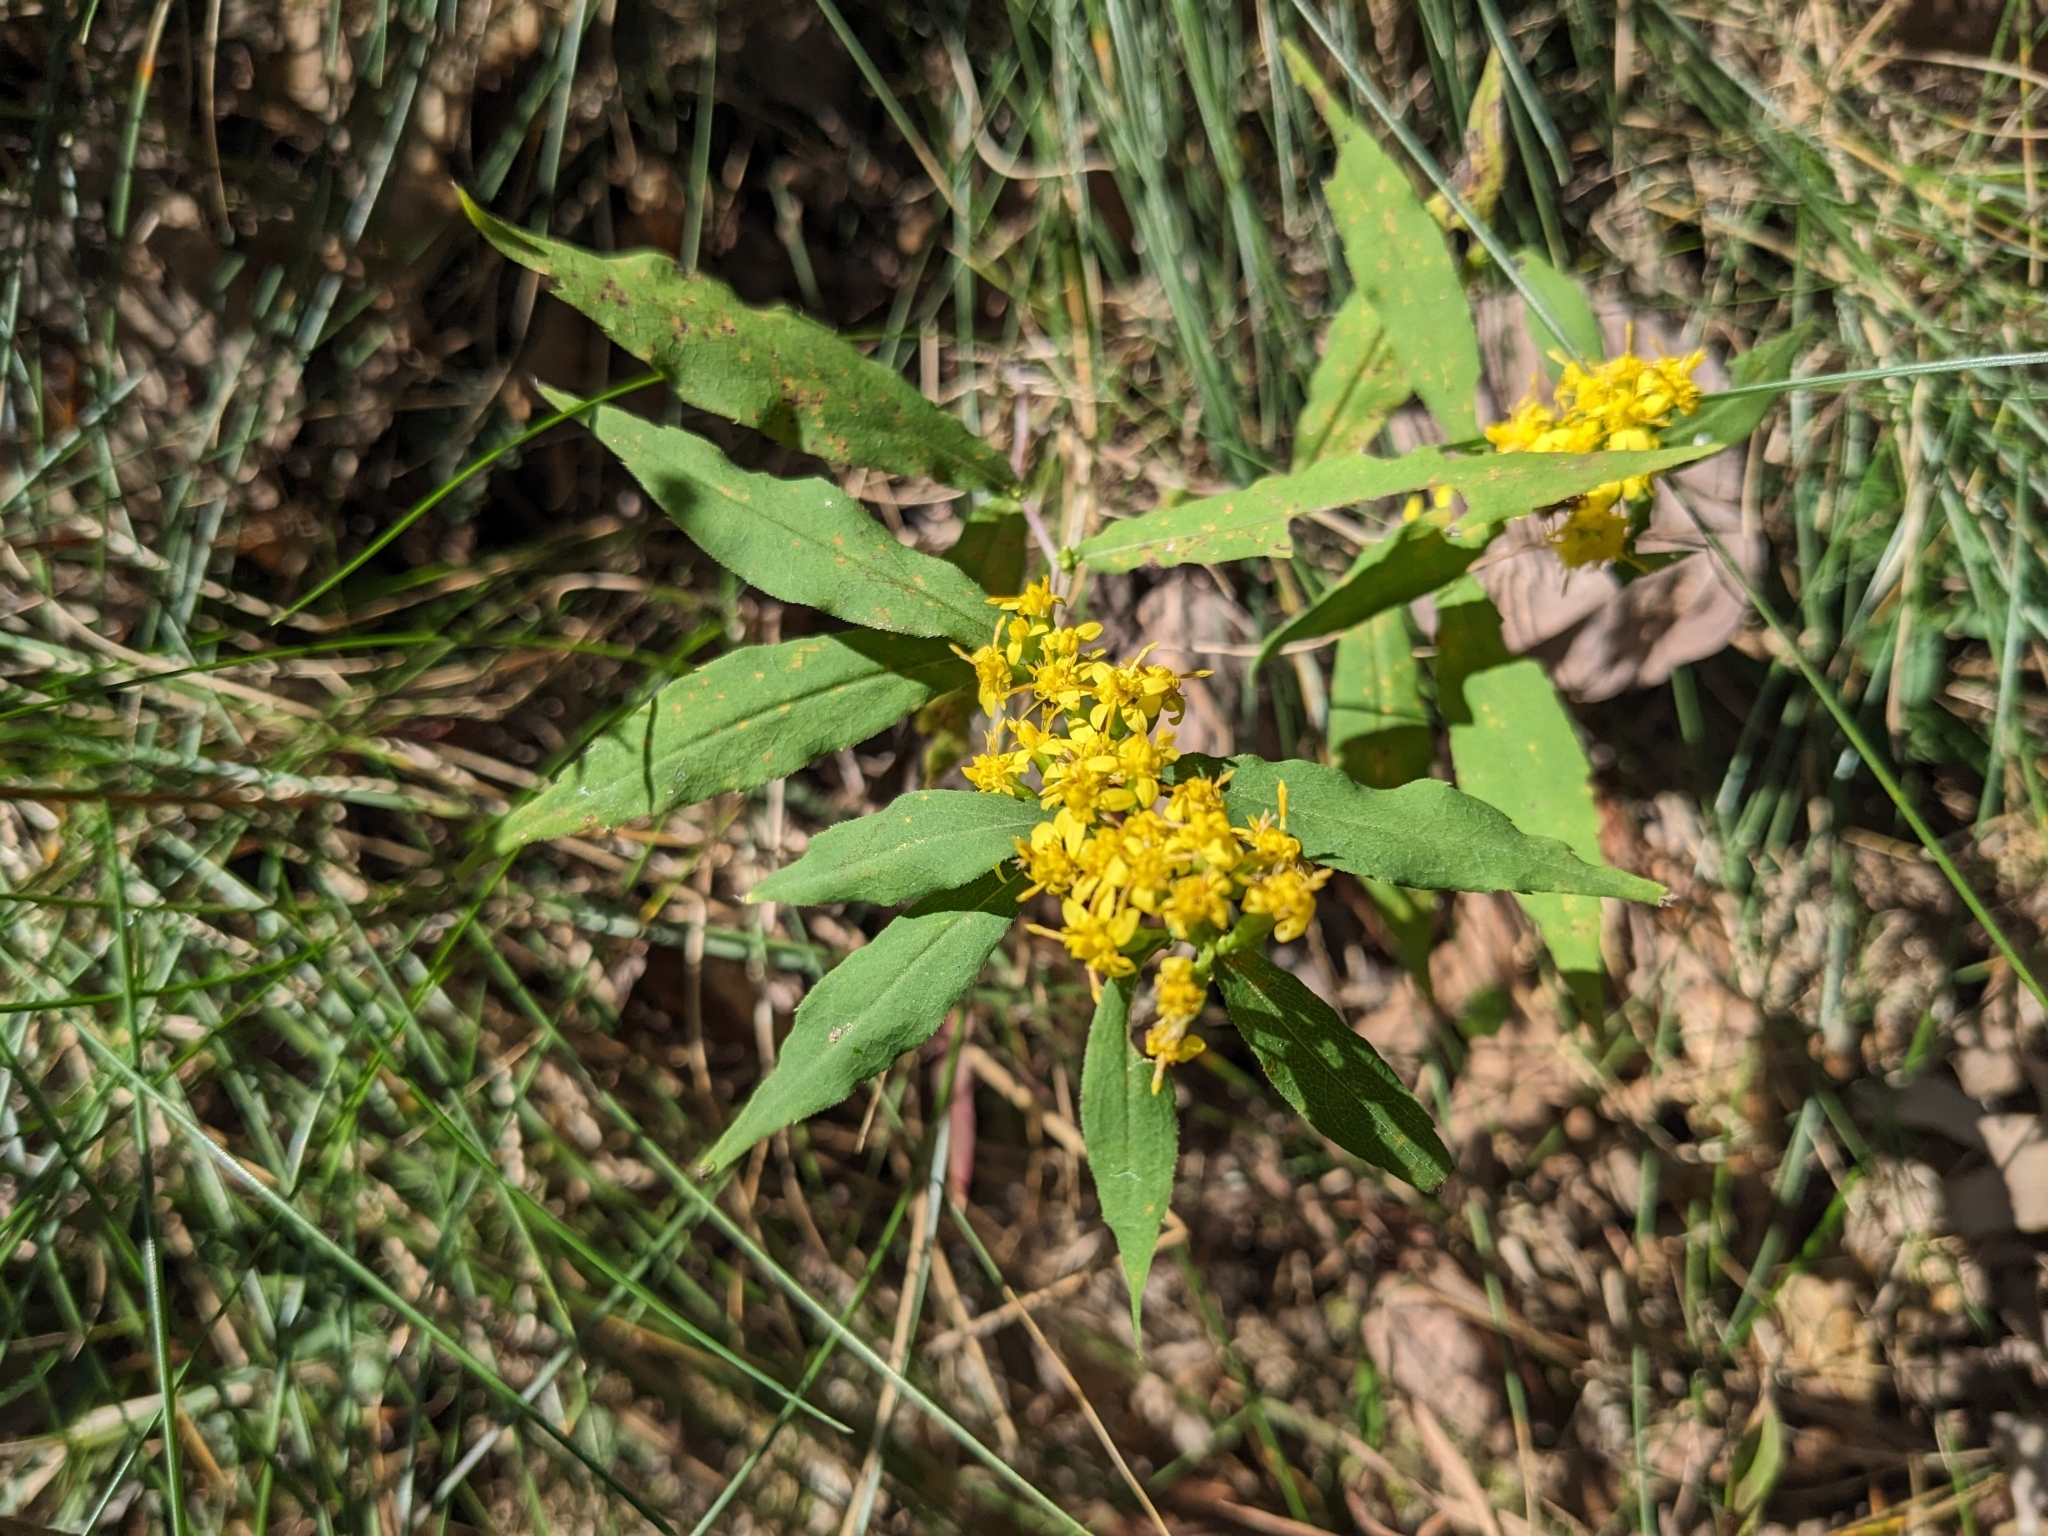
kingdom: Plantae
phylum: Tracheophyta
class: Magnoliopsida
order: Asterales
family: Asteraceae
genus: Solidago
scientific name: Solidago caesia
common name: Woodland goldenrod
